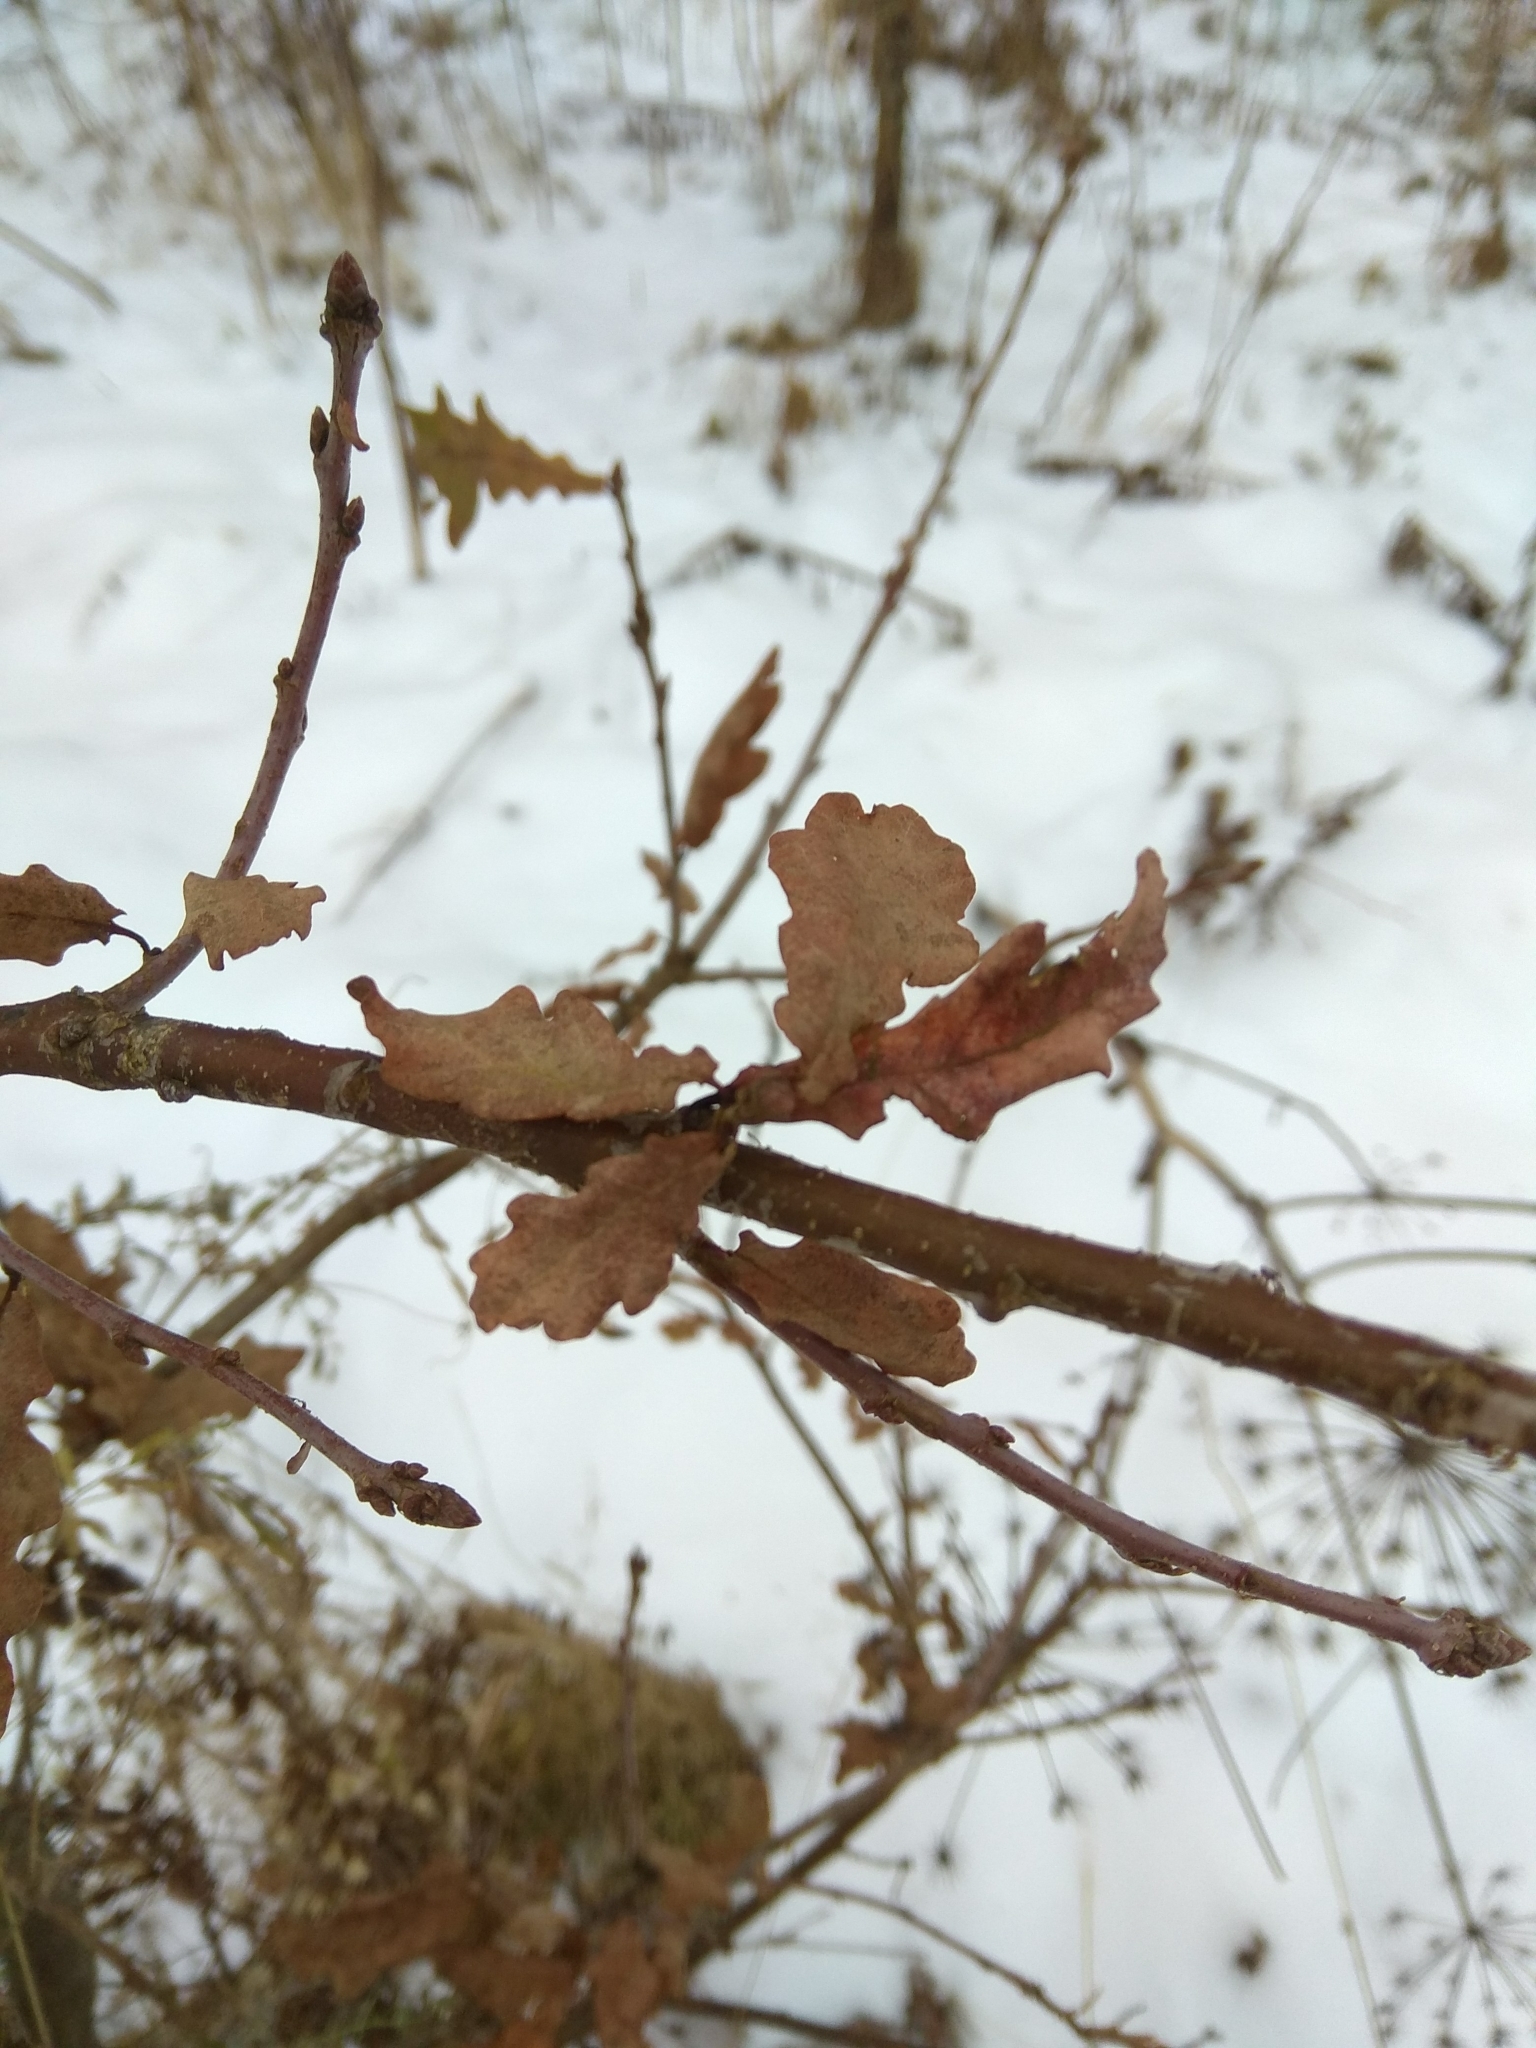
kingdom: Plantae
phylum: Tracheophyta
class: Magnoliopsida
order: Fagales
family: Fagaceae
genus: Quercus
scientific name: Quercus robur
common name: Pedunculate oak
